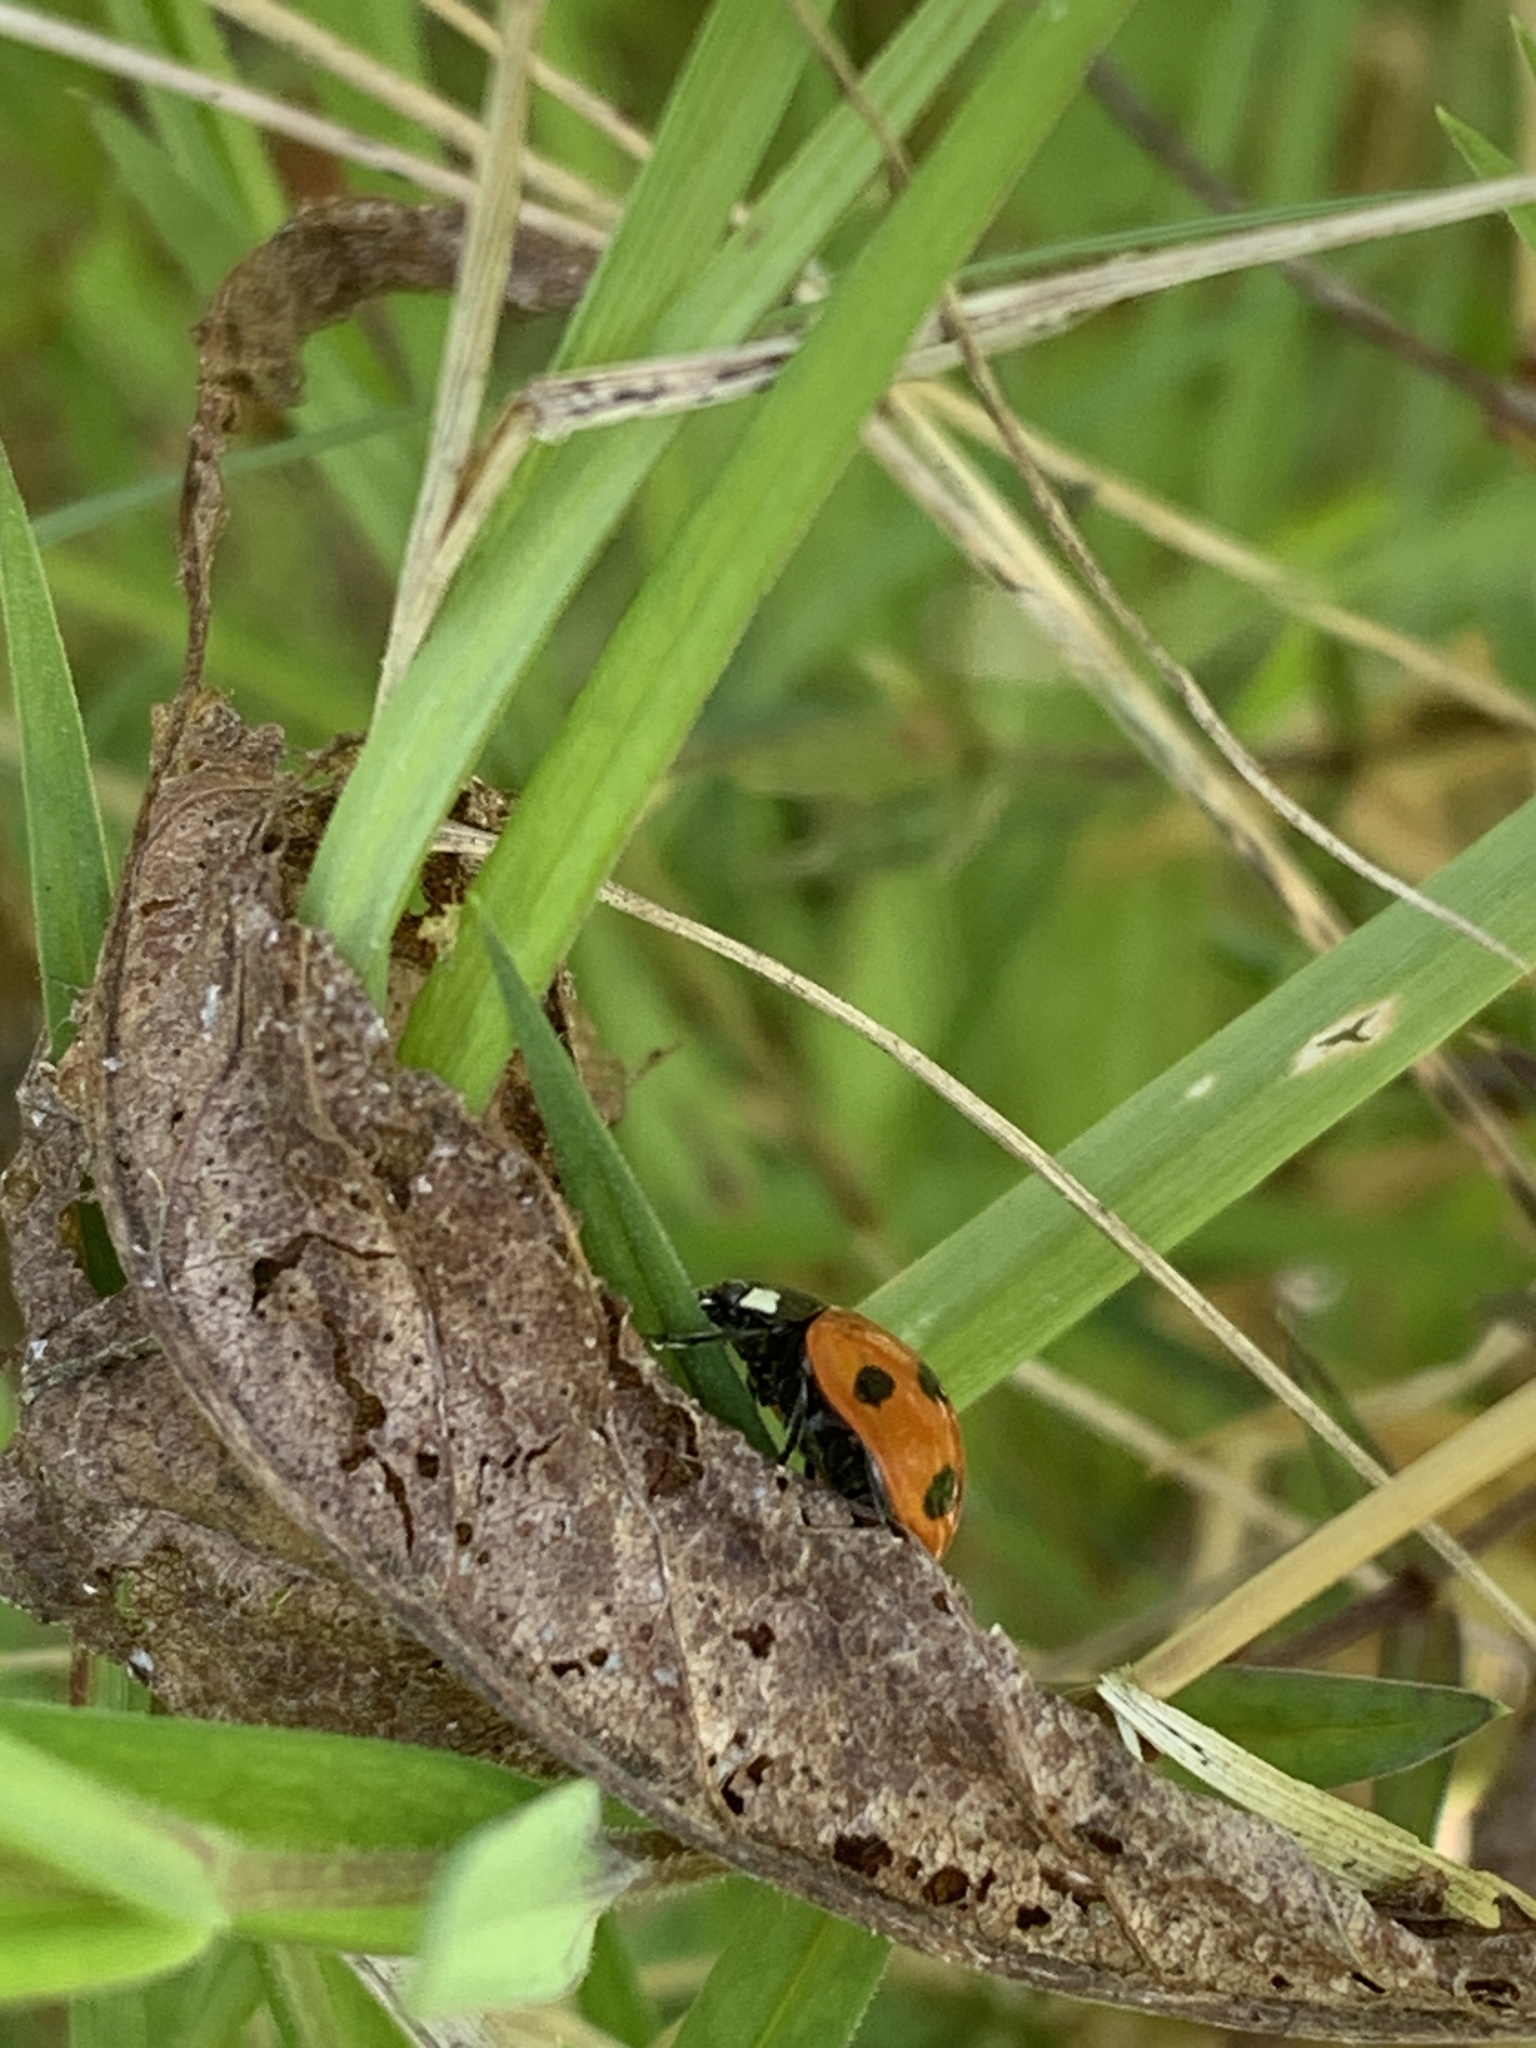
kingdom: Animalia
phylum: Arthropoda
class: Insecta
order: Coleoptera
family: Coccinellidae
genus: Coccinella
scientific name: Coccinella septempunctata
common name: Sevenspotted lady beetle
